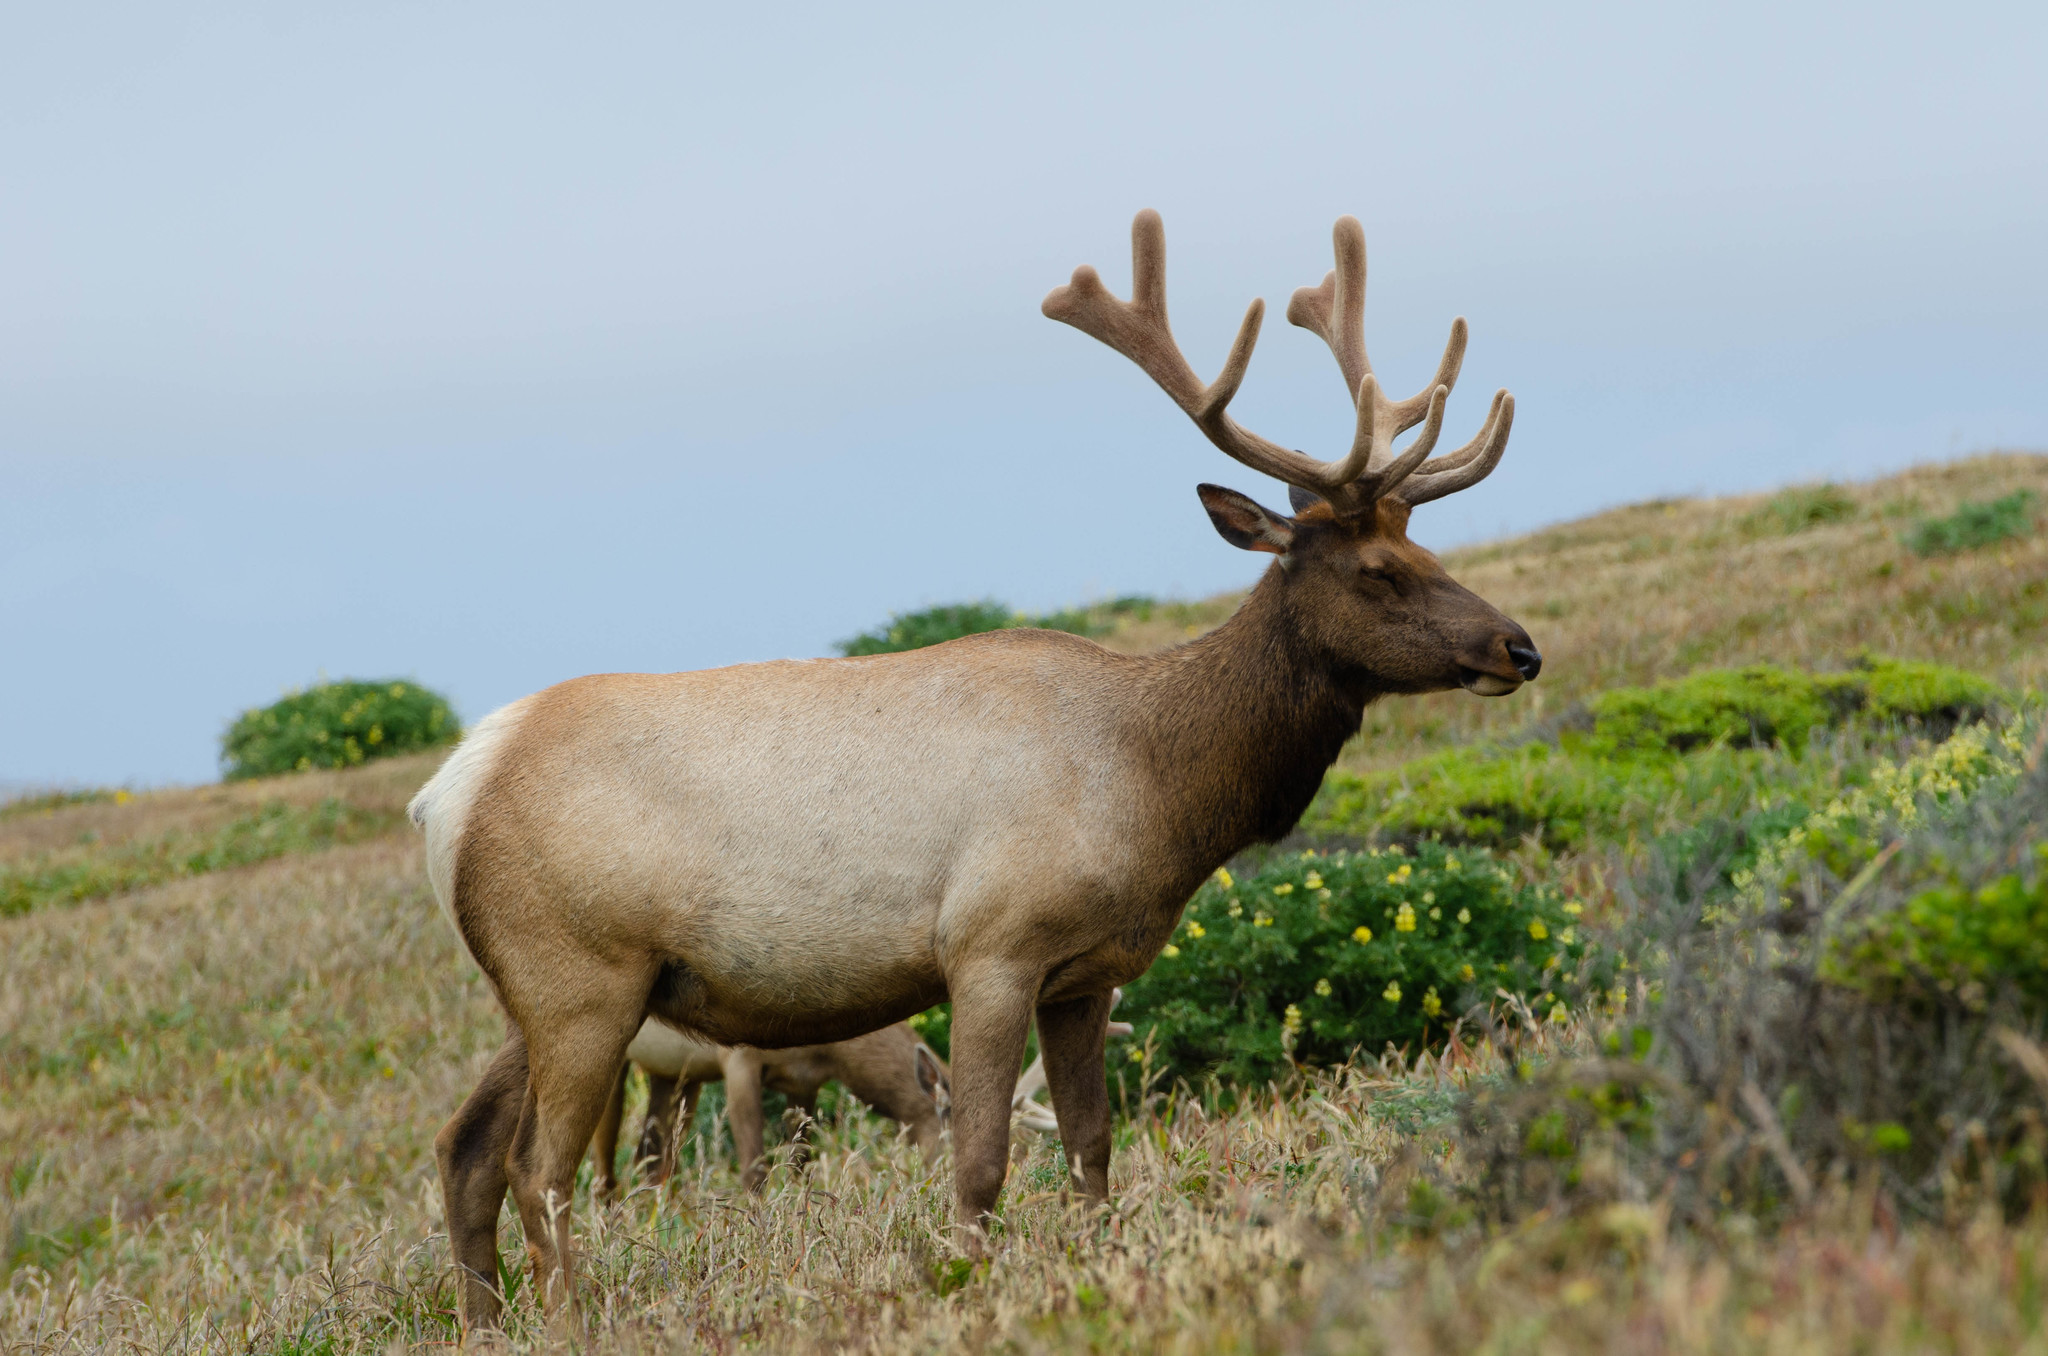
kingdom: Animalia
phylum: Chordata
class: Mammalia
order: Artiodactyla
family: Cervidae
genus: Cervus
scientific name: Cervus elaphus
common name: Red deer
